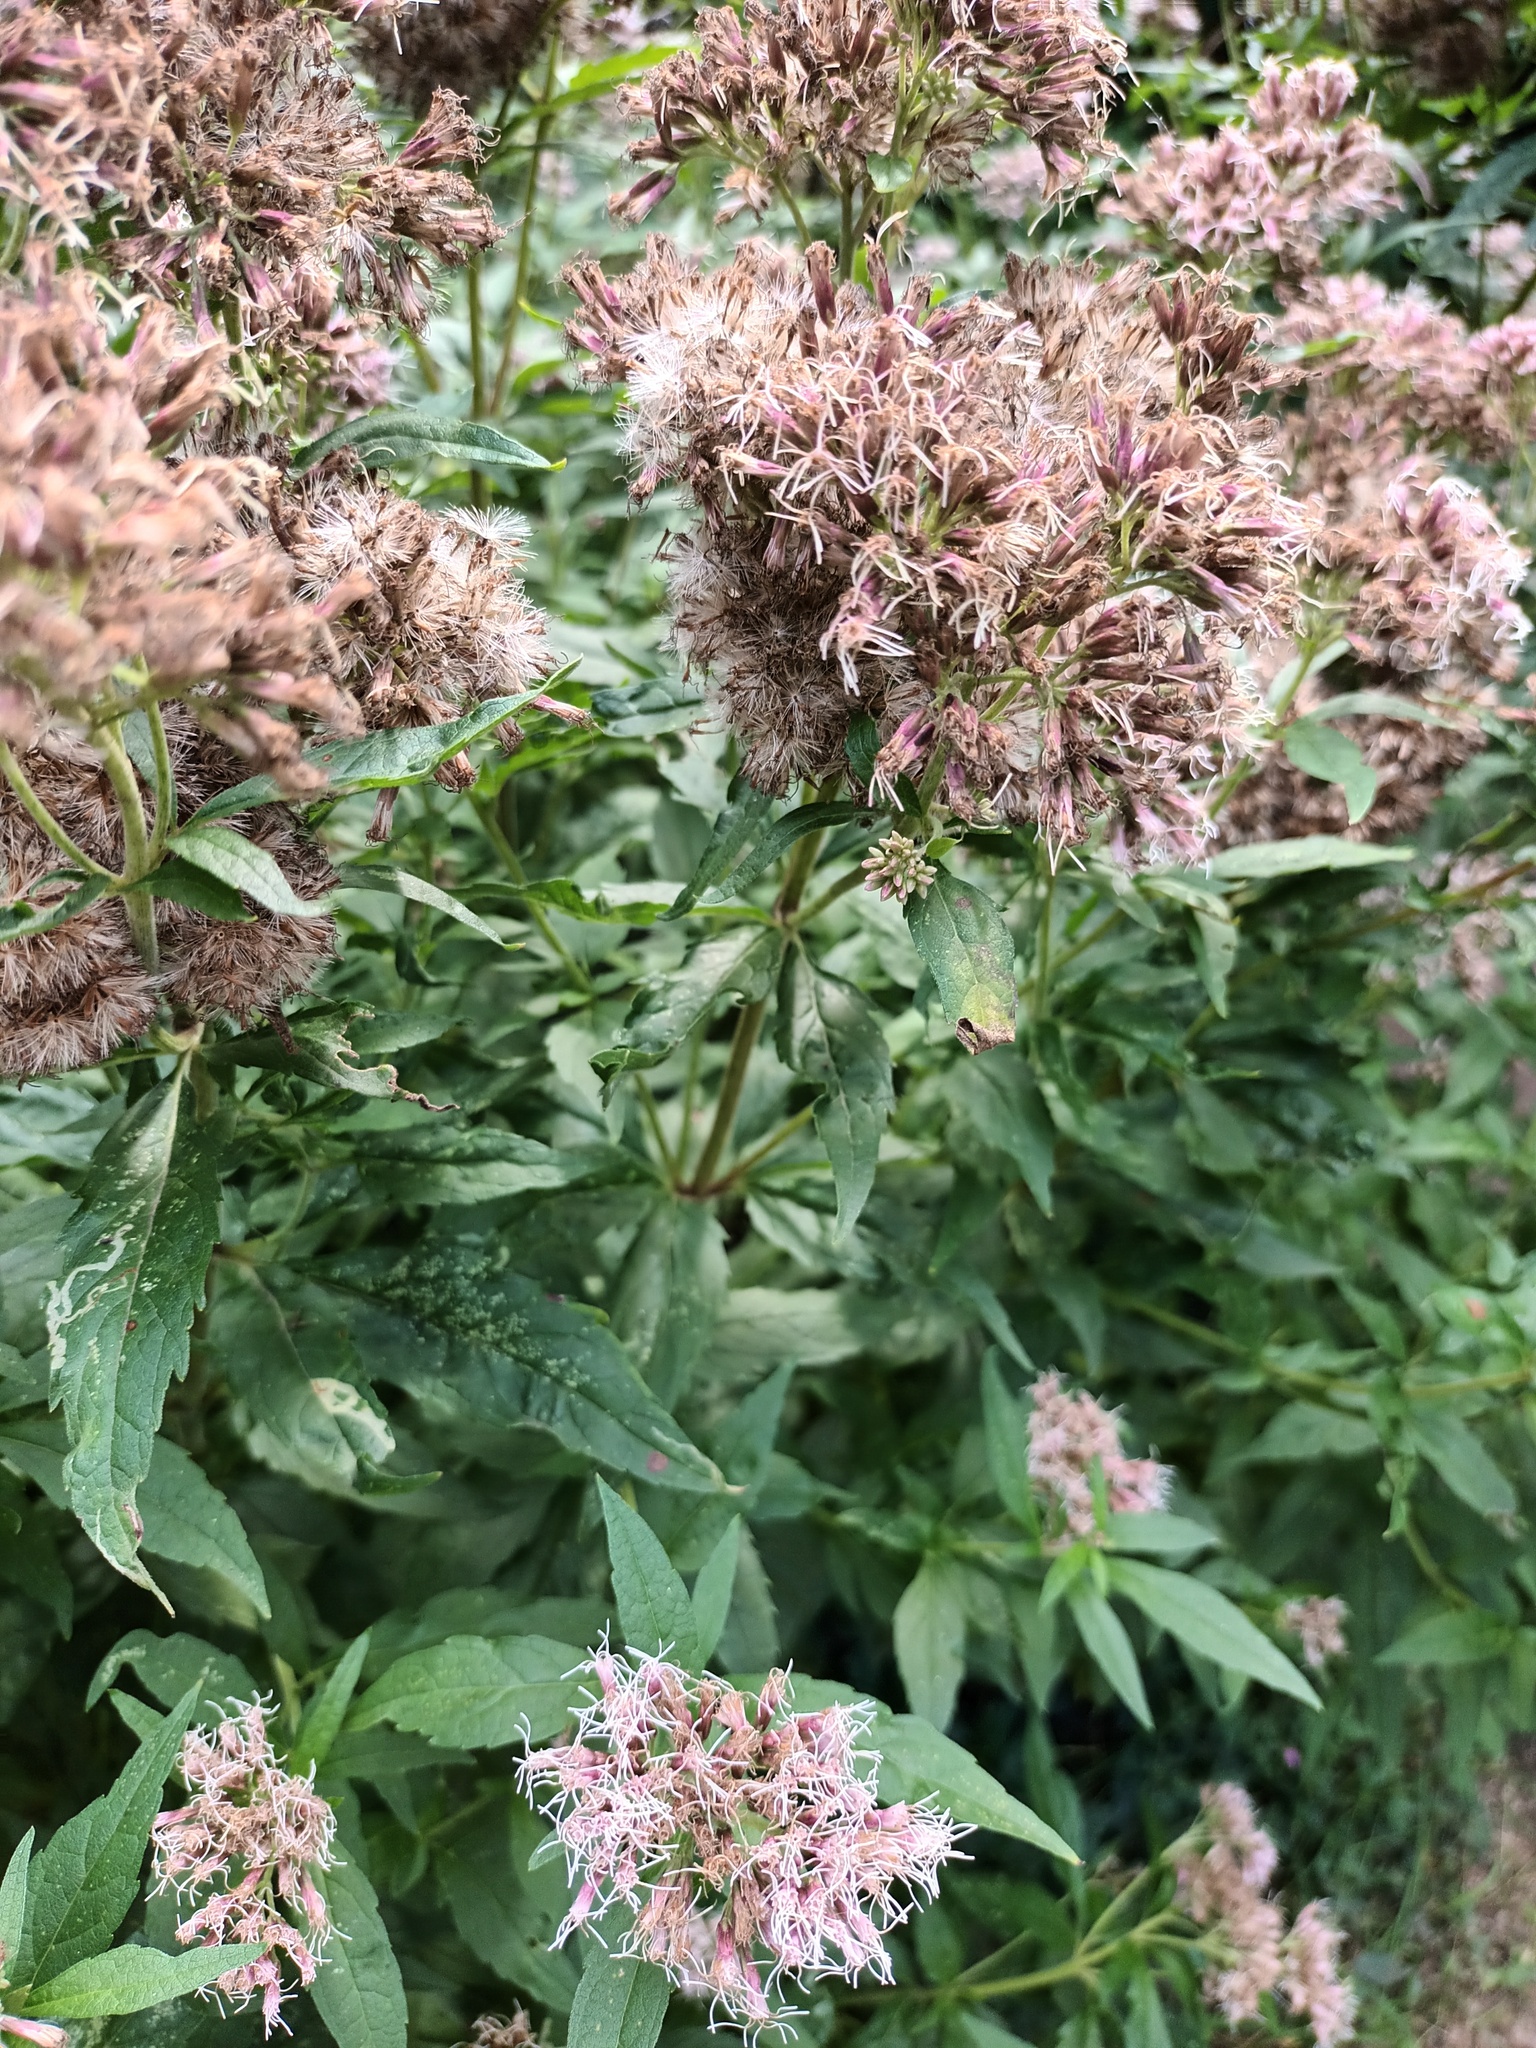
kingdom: Plantae
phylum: Tracheophyta
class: Magnoliopsida
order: Asterales
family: Asteraceae
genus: Eupatorium
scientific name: Eupatorium cannabinum
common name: Hemp-agrimony
